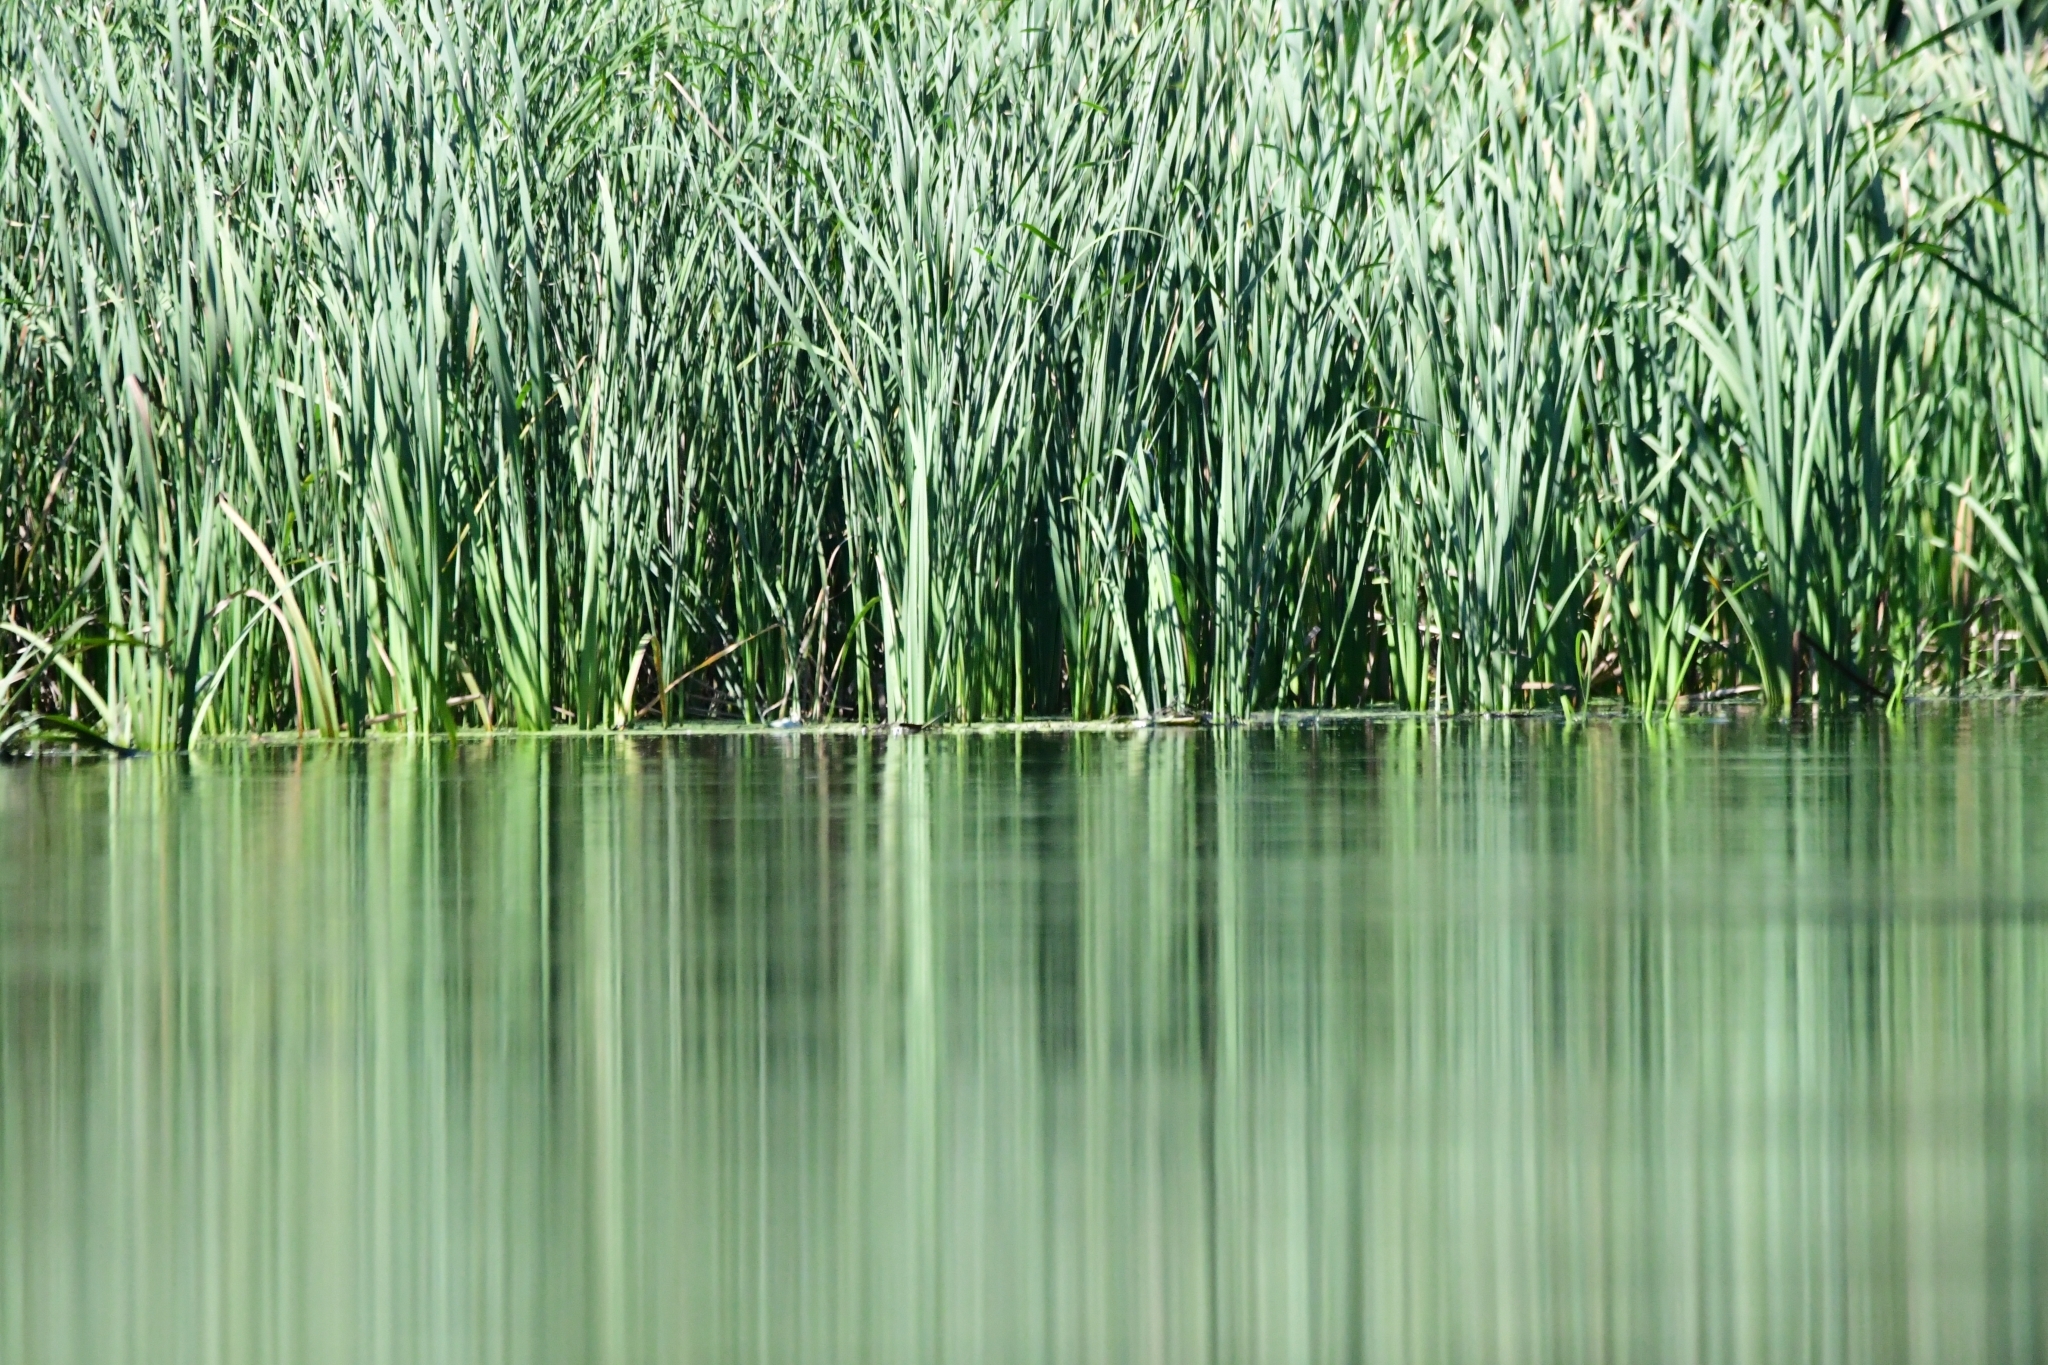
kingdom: Plantae
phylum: Tracheophyta
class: Liliopsida
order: Poales
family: Typhaceae
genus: Typha
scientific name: Typha latifolia
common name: Broadleaf cattail
